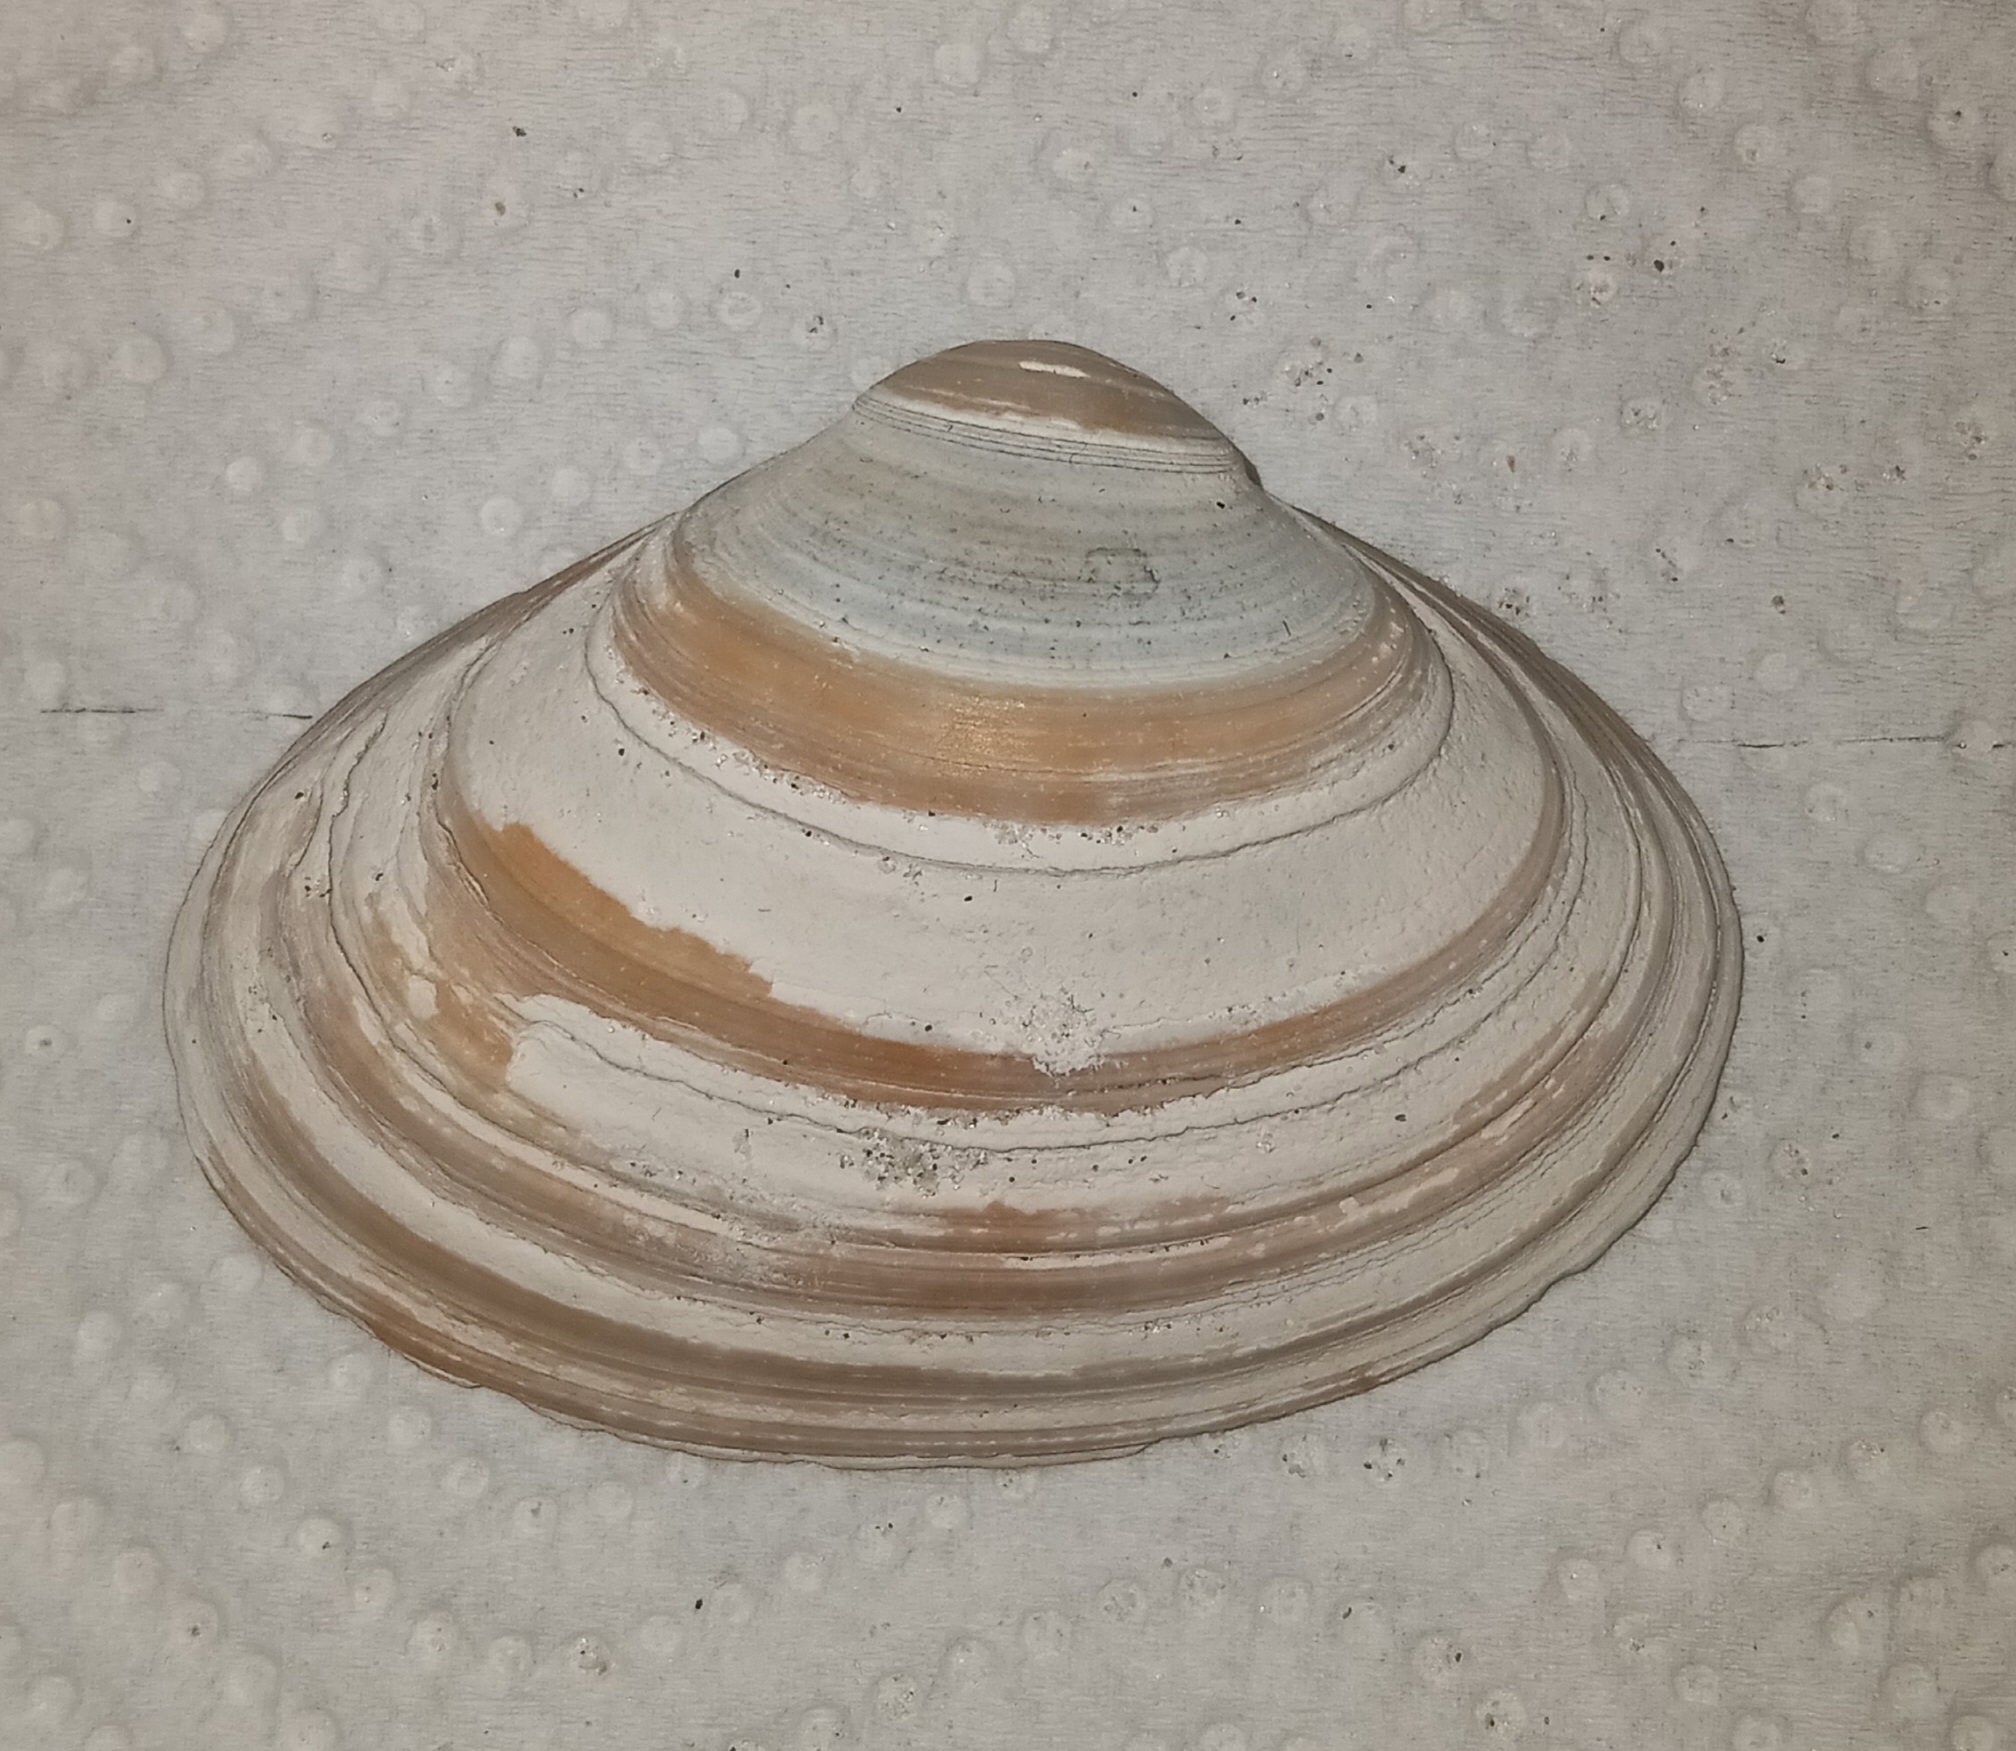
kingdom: Animalia
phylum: Mollusca
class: Bivalvia
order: Venerida
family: Mactridae
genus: Spisula
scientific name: Spisula solidissima
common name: Atlantic surf clam
